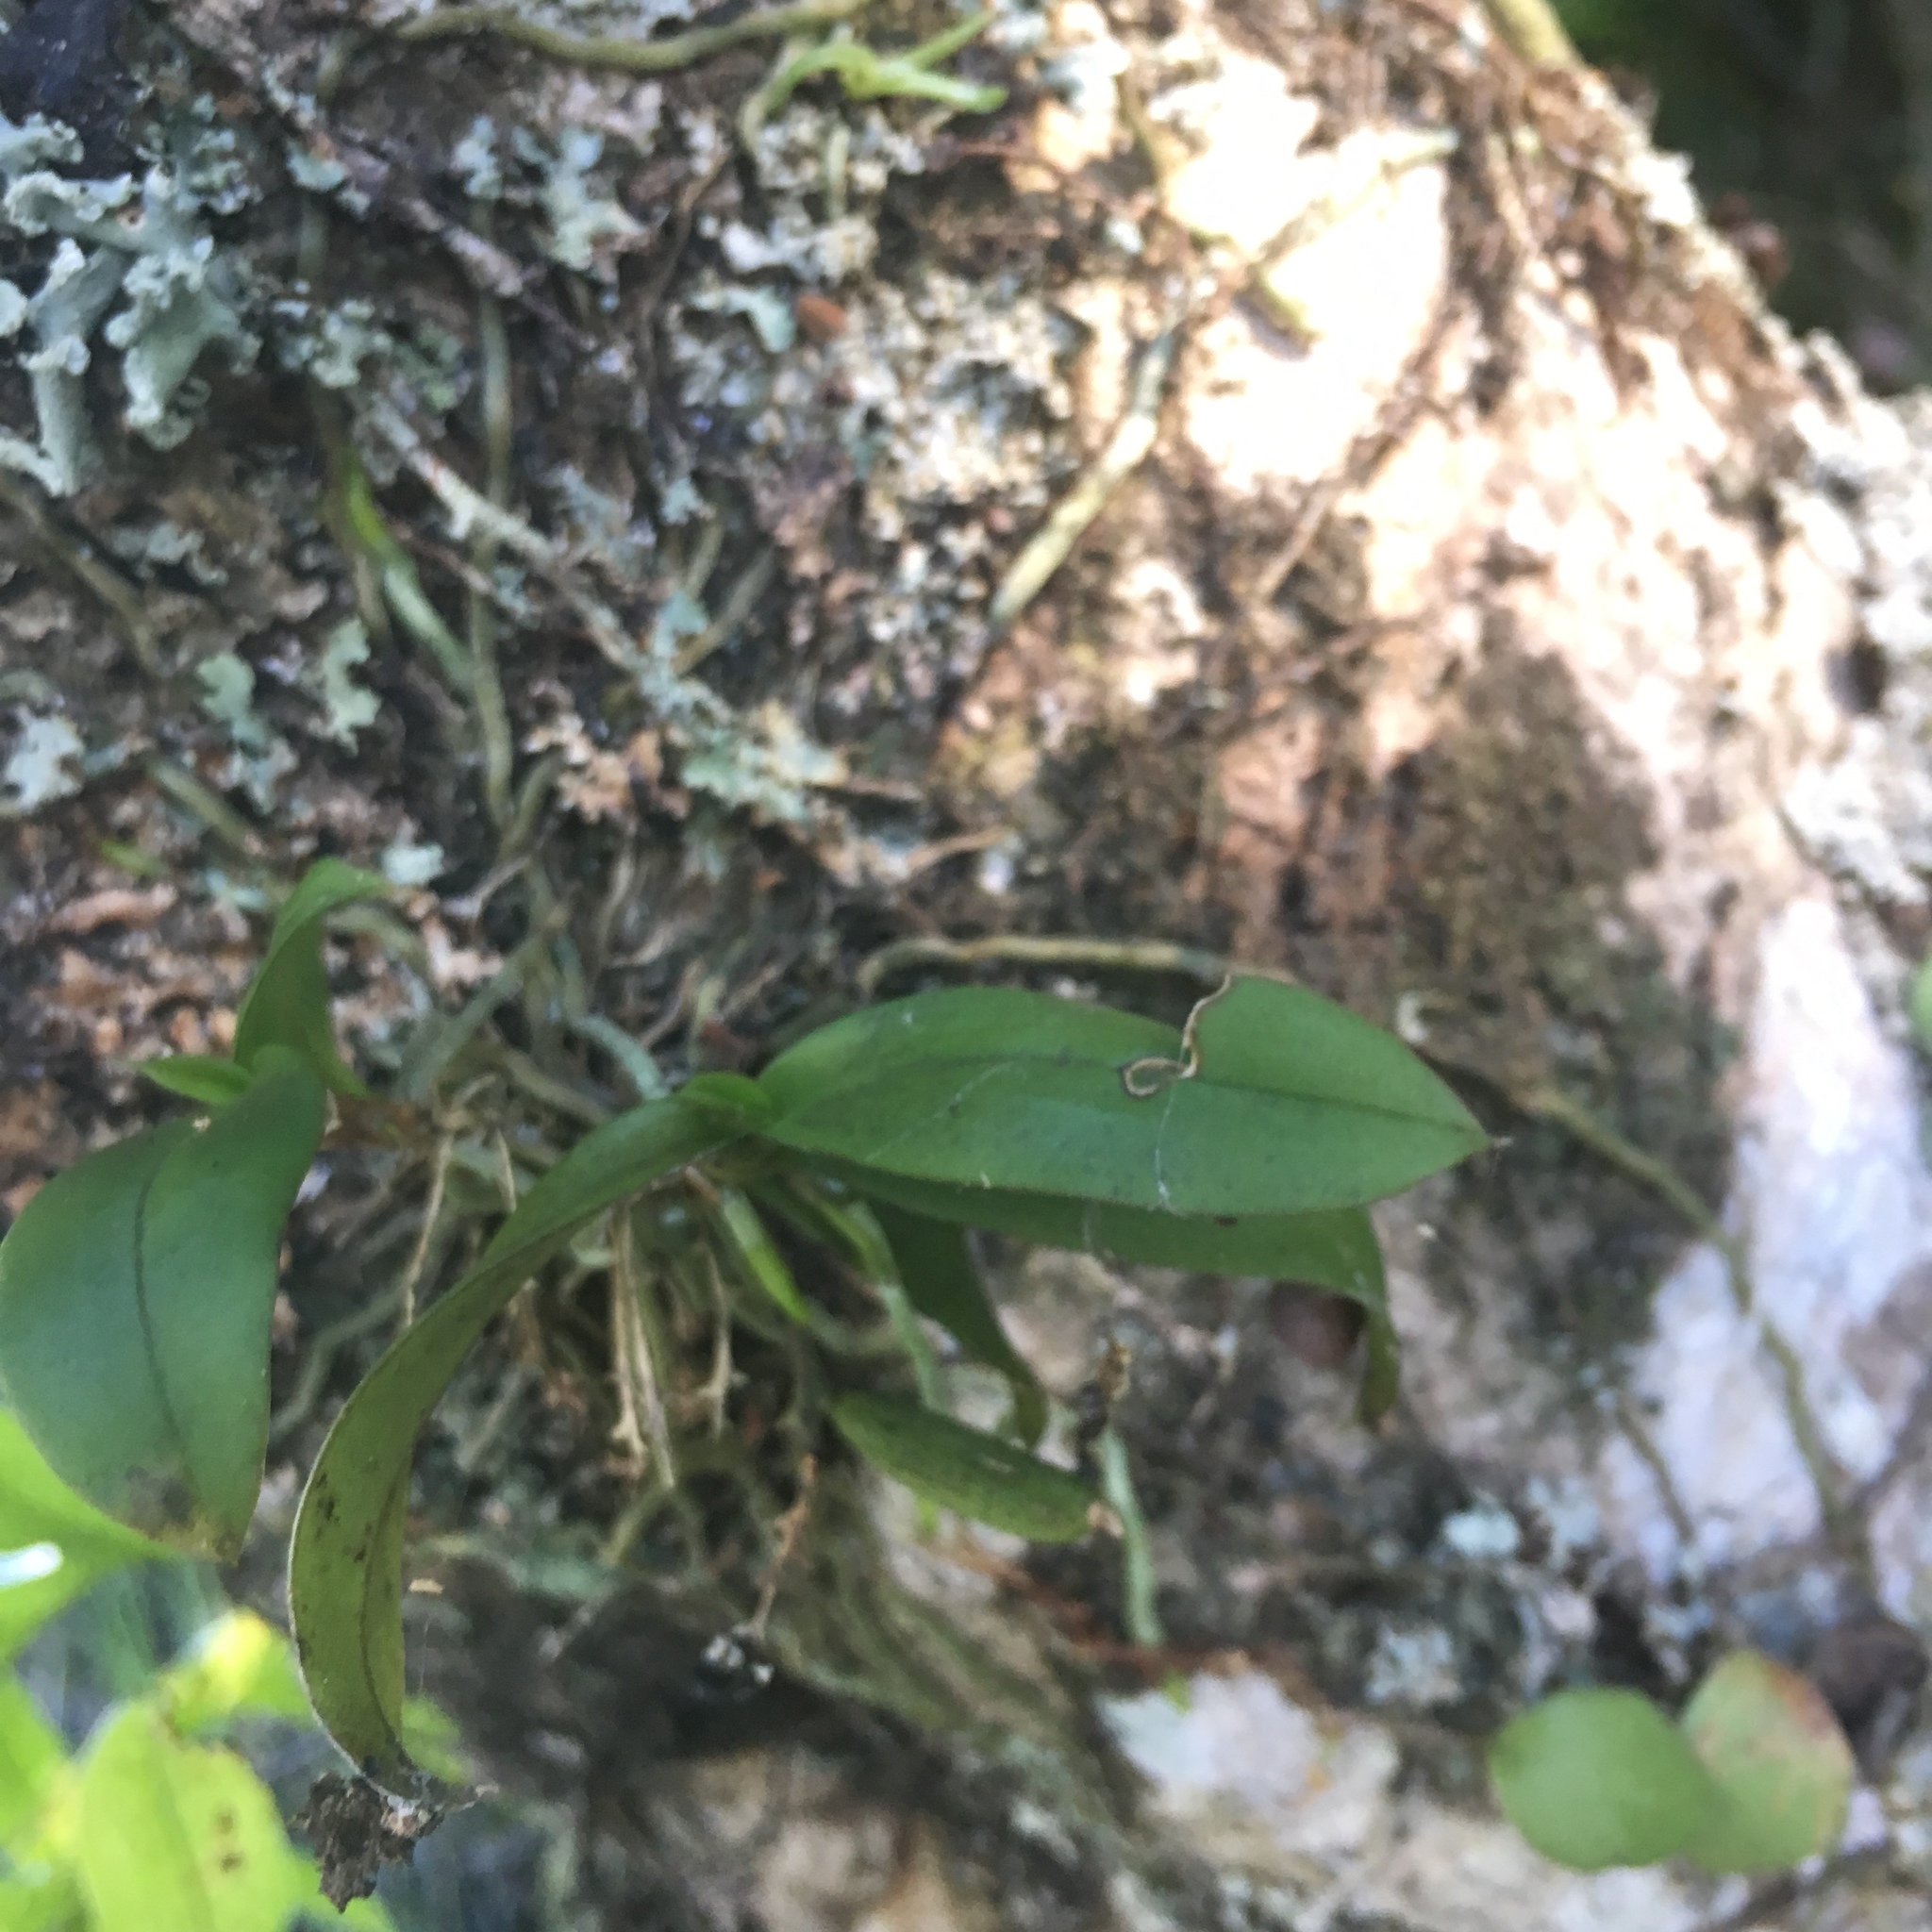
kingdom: Plantae
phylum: Tracheophyta
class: Liliopsida
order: Asparagales
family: Orchidaceae
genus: Drymoanthus
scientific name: Drymoanthus adversus
